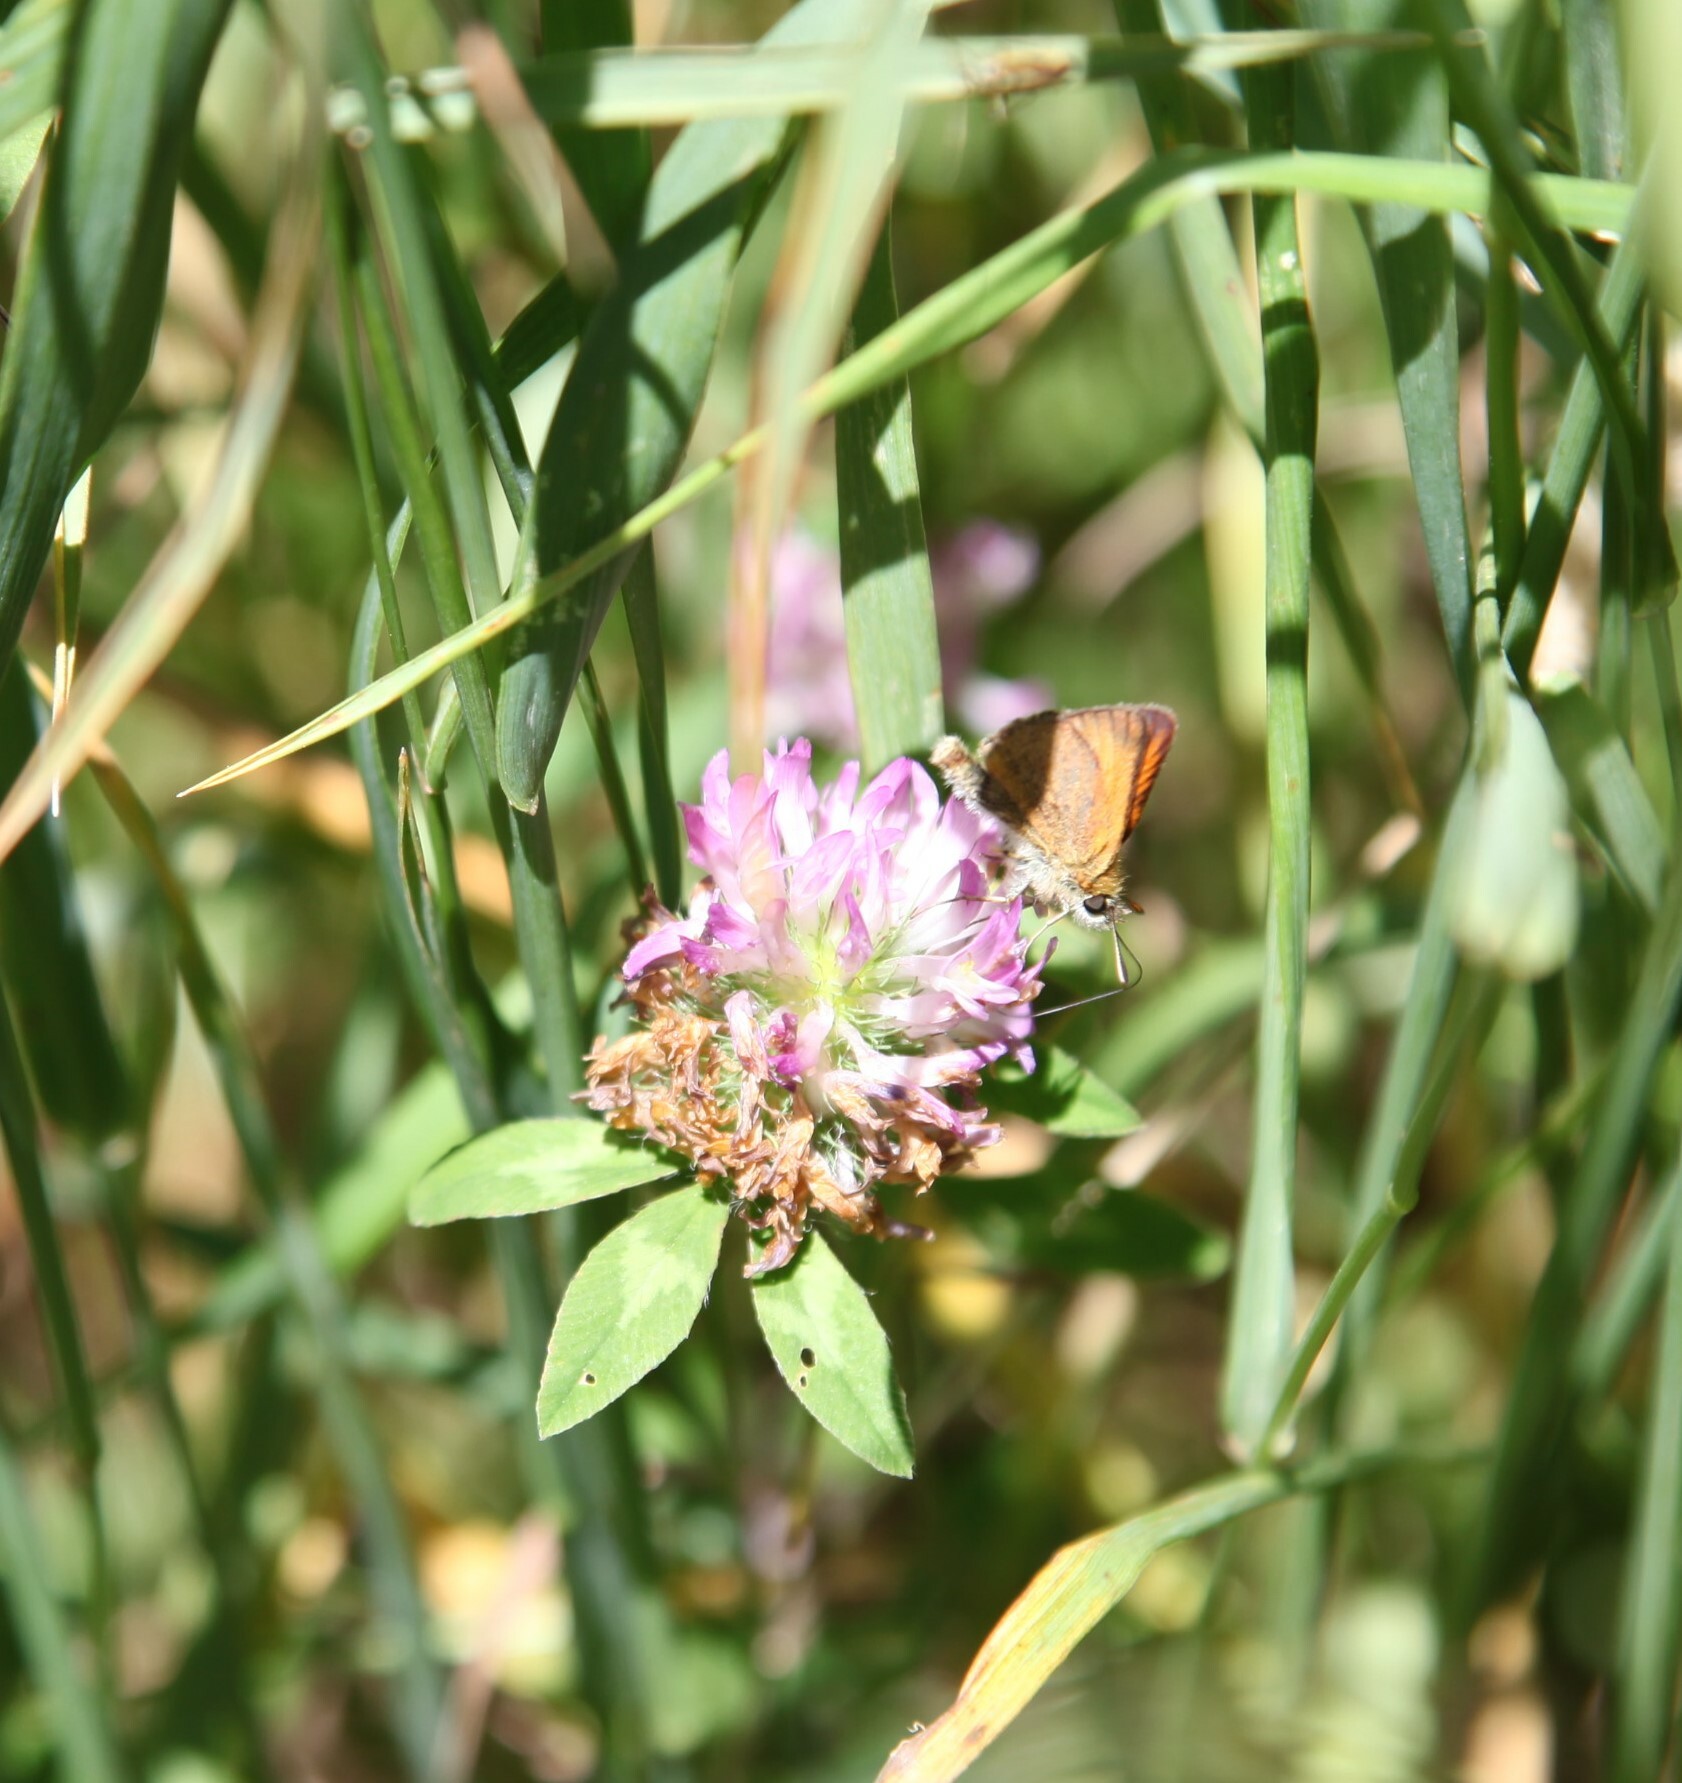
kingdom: Animalia
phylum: Arthropoda
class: Insecta
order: Lepidoptera
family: Hesperiidae
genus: Thymelicus
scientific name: Thymelicus lineola
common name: Essex skipper
